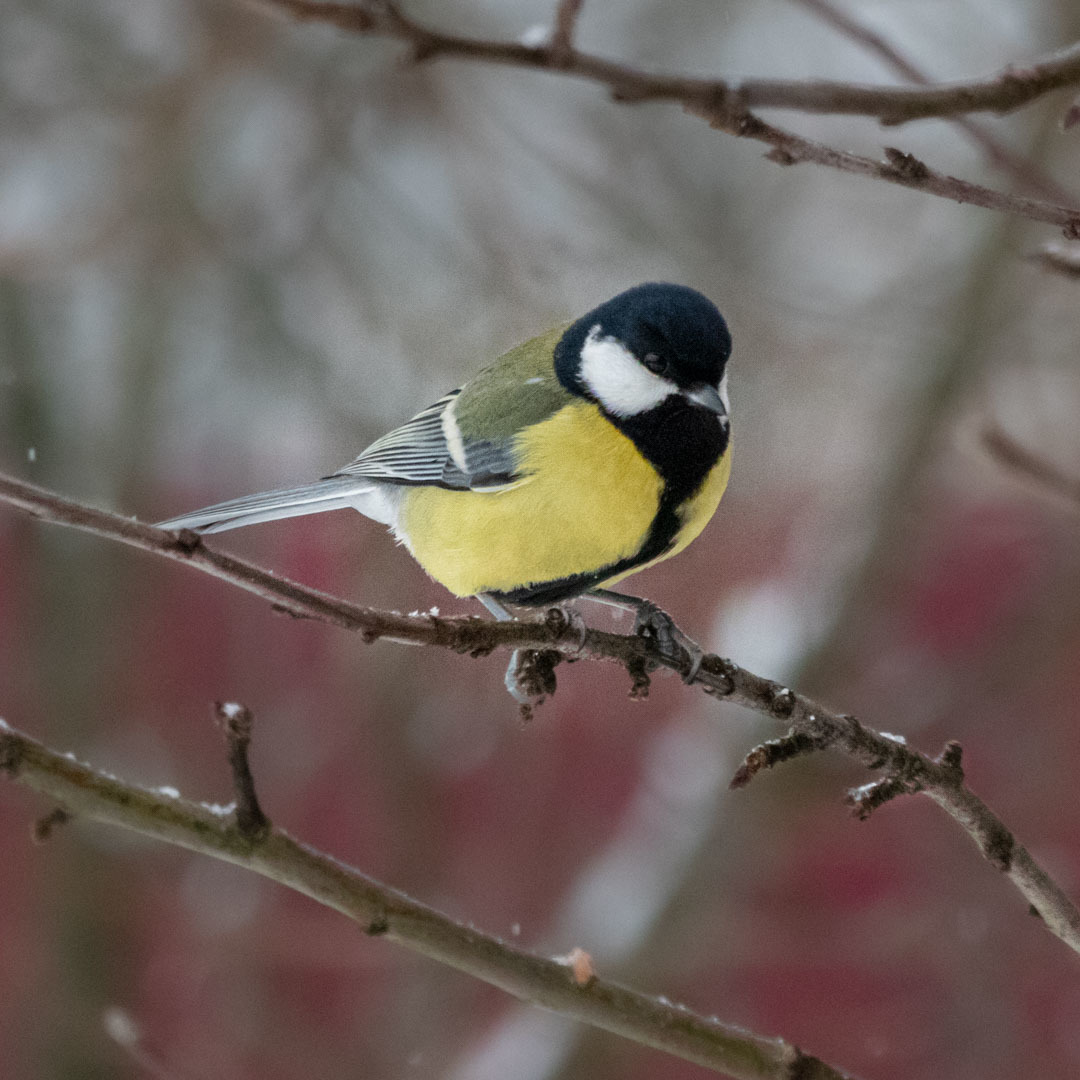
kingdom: Animalia
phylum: Chordata
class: Aves
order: Passeriformes
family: Paridae
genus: Parus
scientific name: Parus major
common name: Great tit
